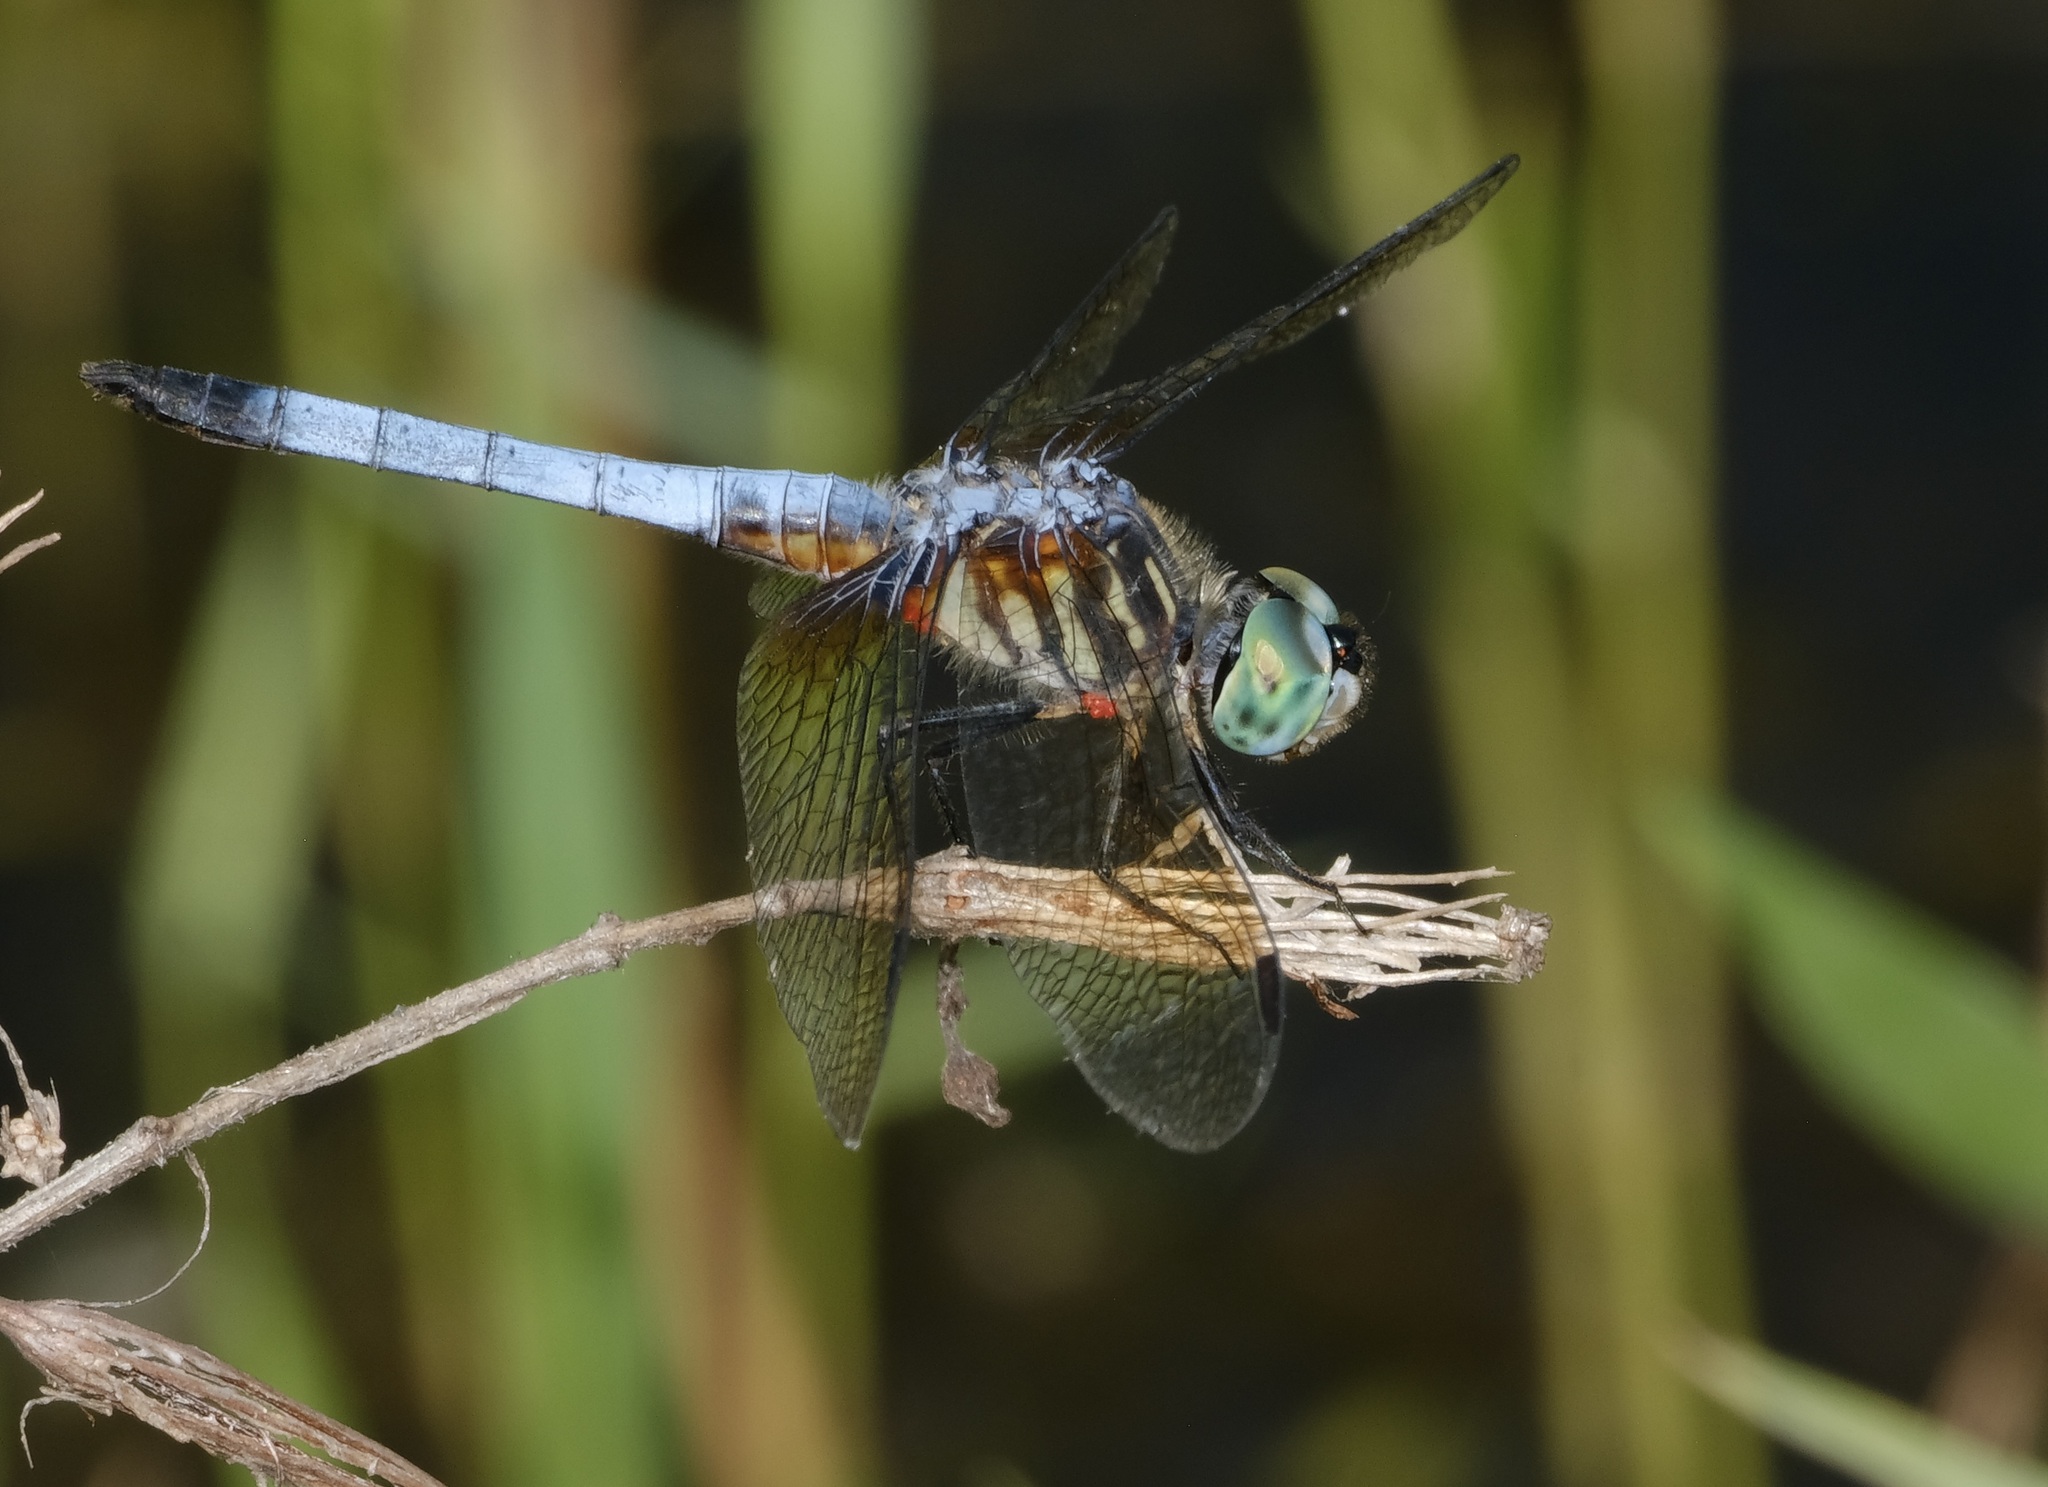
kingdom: Animalia
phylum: Arthropoda
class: Insecta
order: Odonata
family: Libellulidae
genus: Pachydiplax
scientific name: Pachydiplax longipennis
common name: Blue dasher
